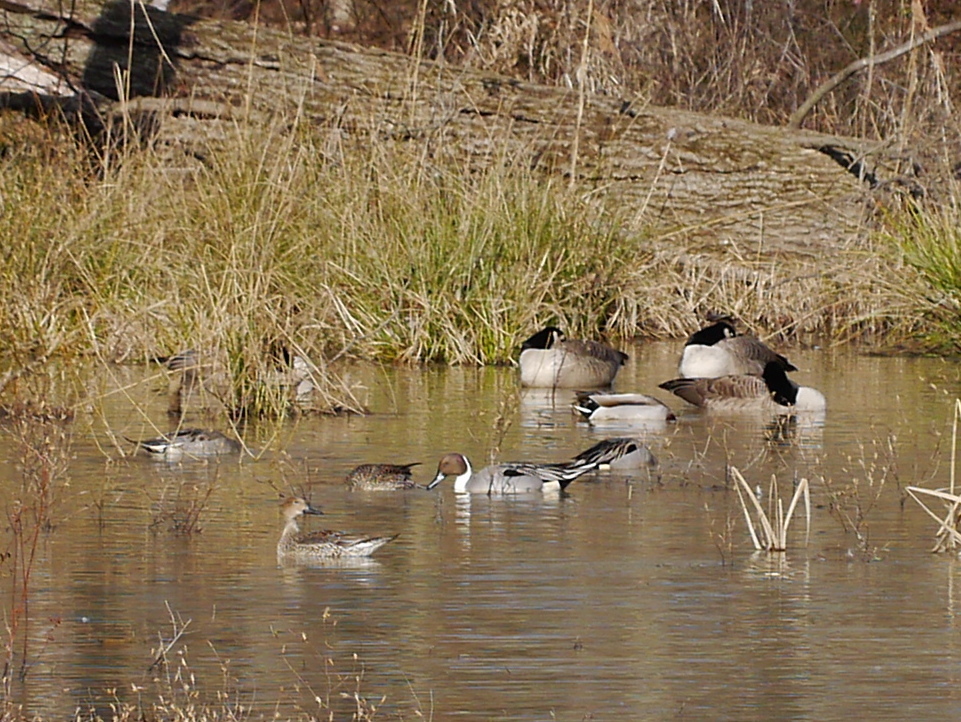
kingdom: Animalia
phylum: Chordata
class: Aves
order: Anseriformes
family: Anatidae
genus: Anas
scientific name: Anas acuta
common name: Northern pintail
